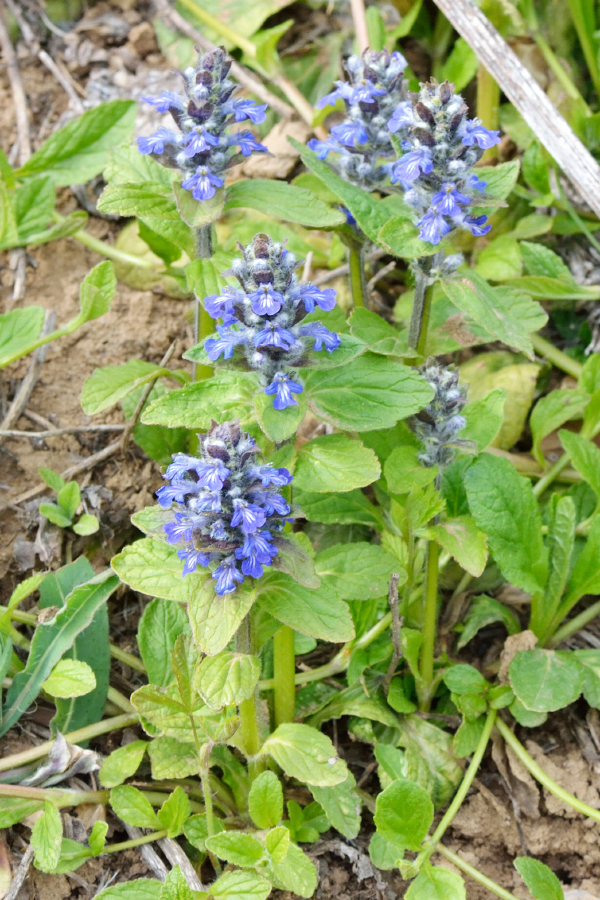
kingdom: Plantae
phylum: Tracheophyta
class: Magnoliopsida
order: Lamiales
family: Lamiaceae
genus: Ajuga
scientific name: Ajuga reptans
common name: Bugle
